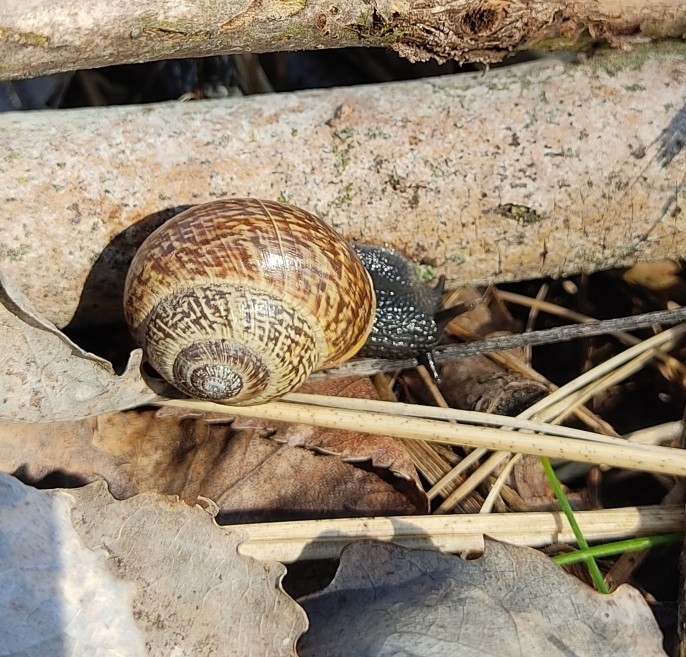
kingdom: Animalia
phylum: Mollusca
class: Gastropoda
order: Stylommatophora
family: Helicidae
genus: Arianta
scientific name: Arianta arbustorum
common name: Copse snail
